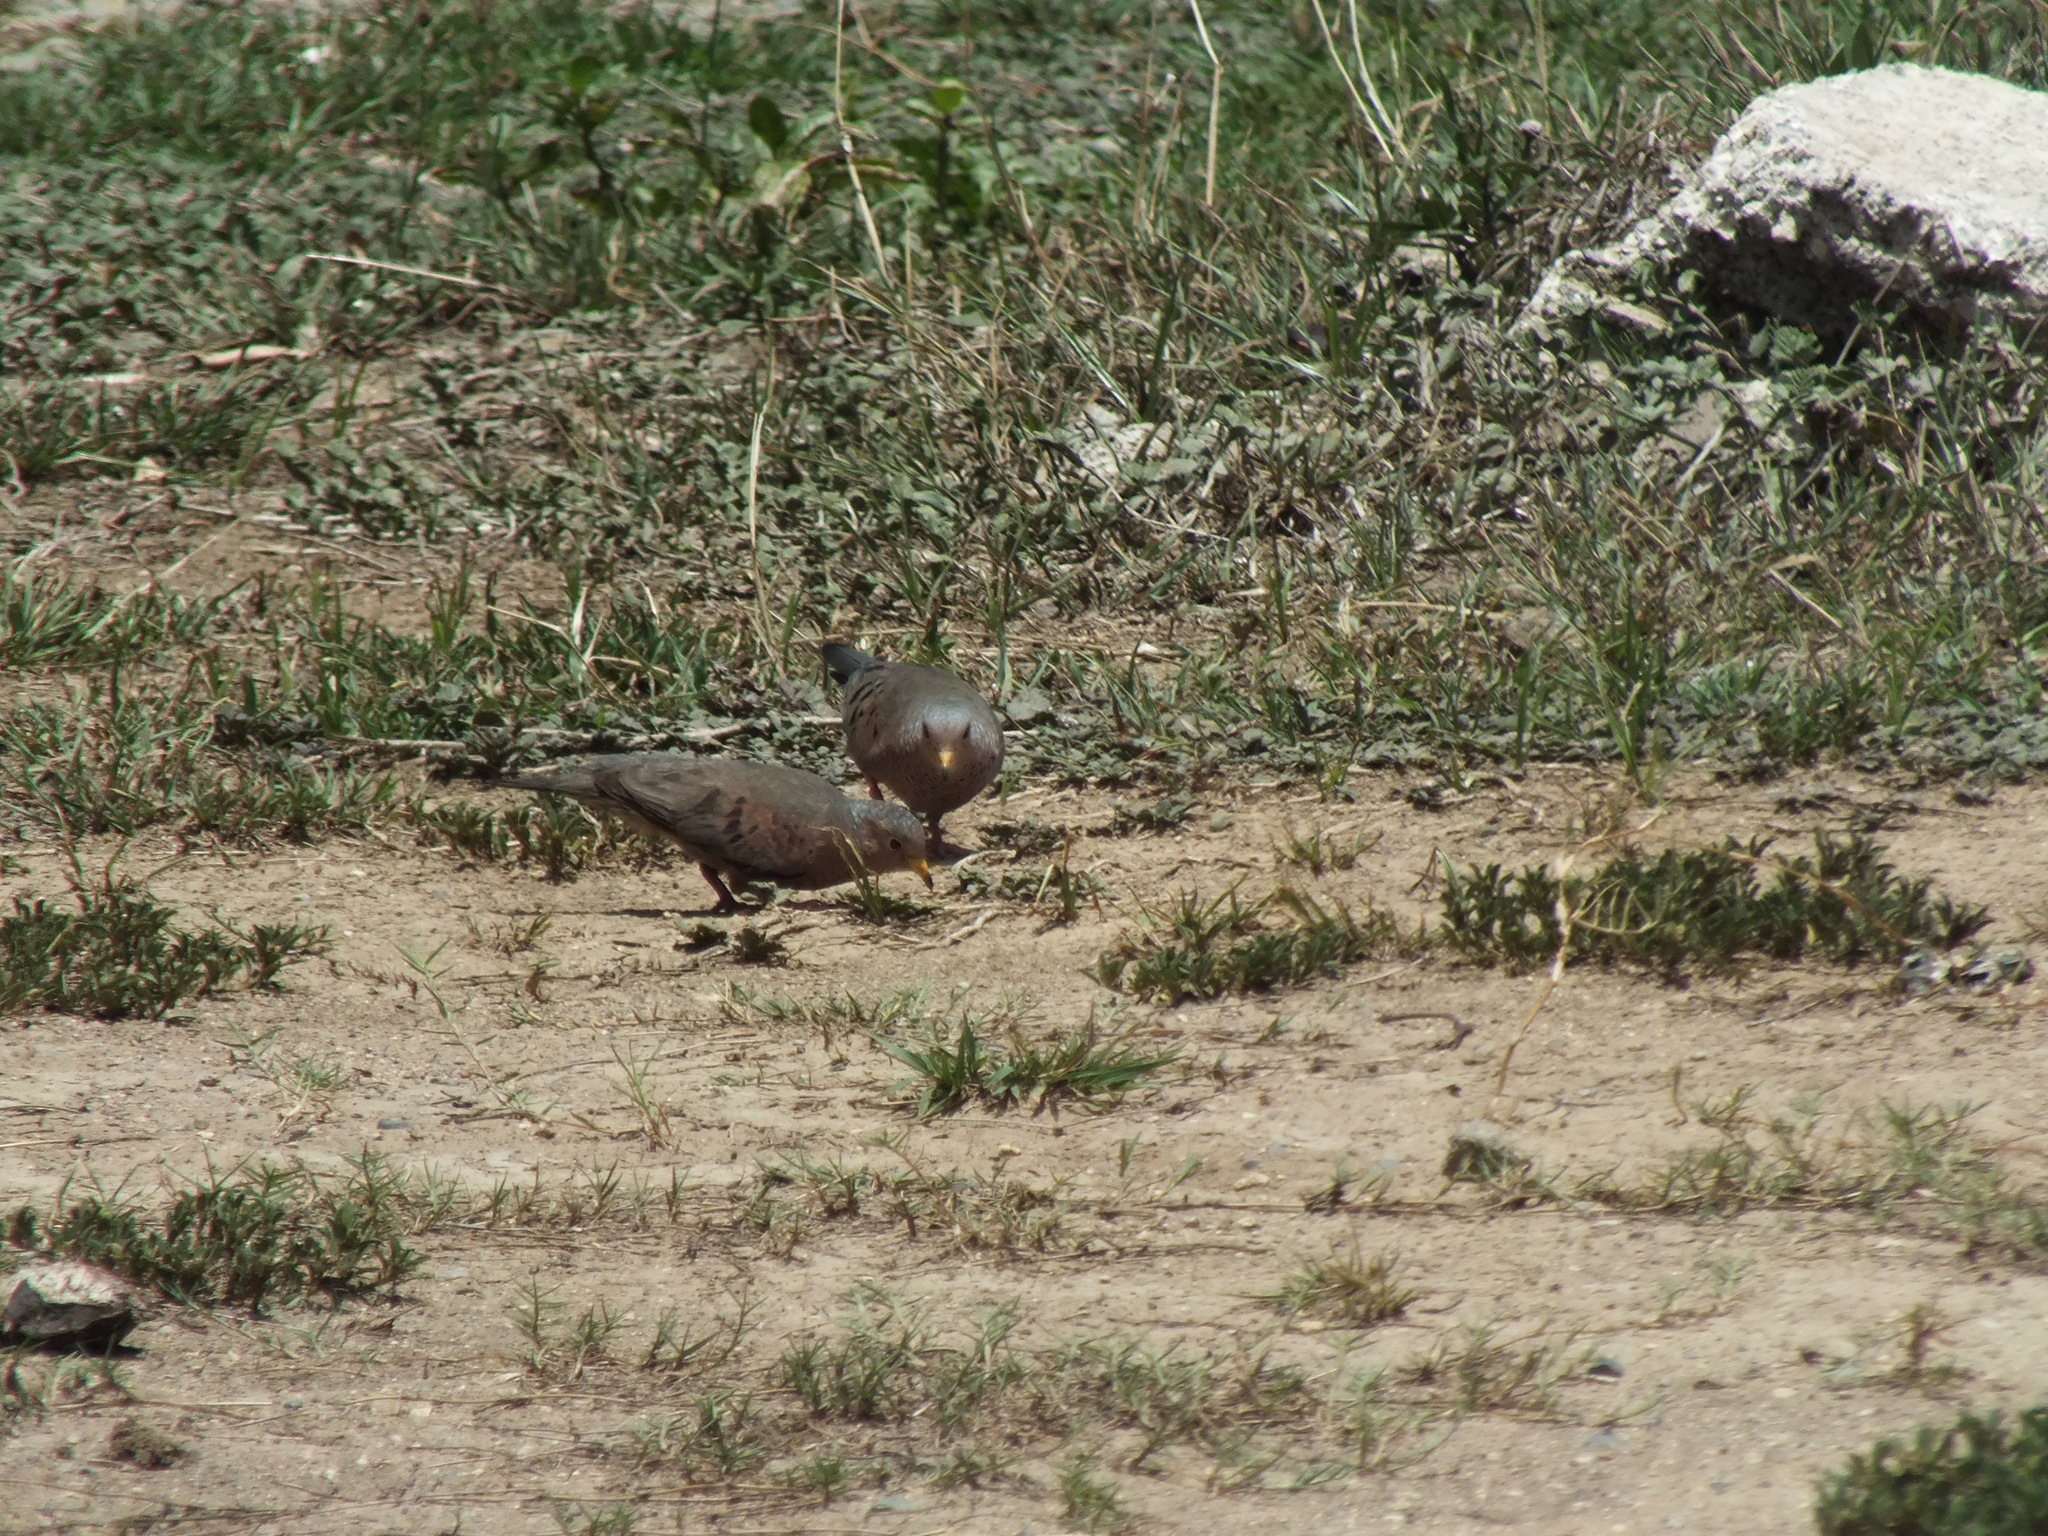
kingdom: Animalia
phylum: Chordata
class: Aves
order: Columbiformes
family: Columbidae
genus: Columbina
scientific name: Columbina passerina
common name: Common ground-dove
